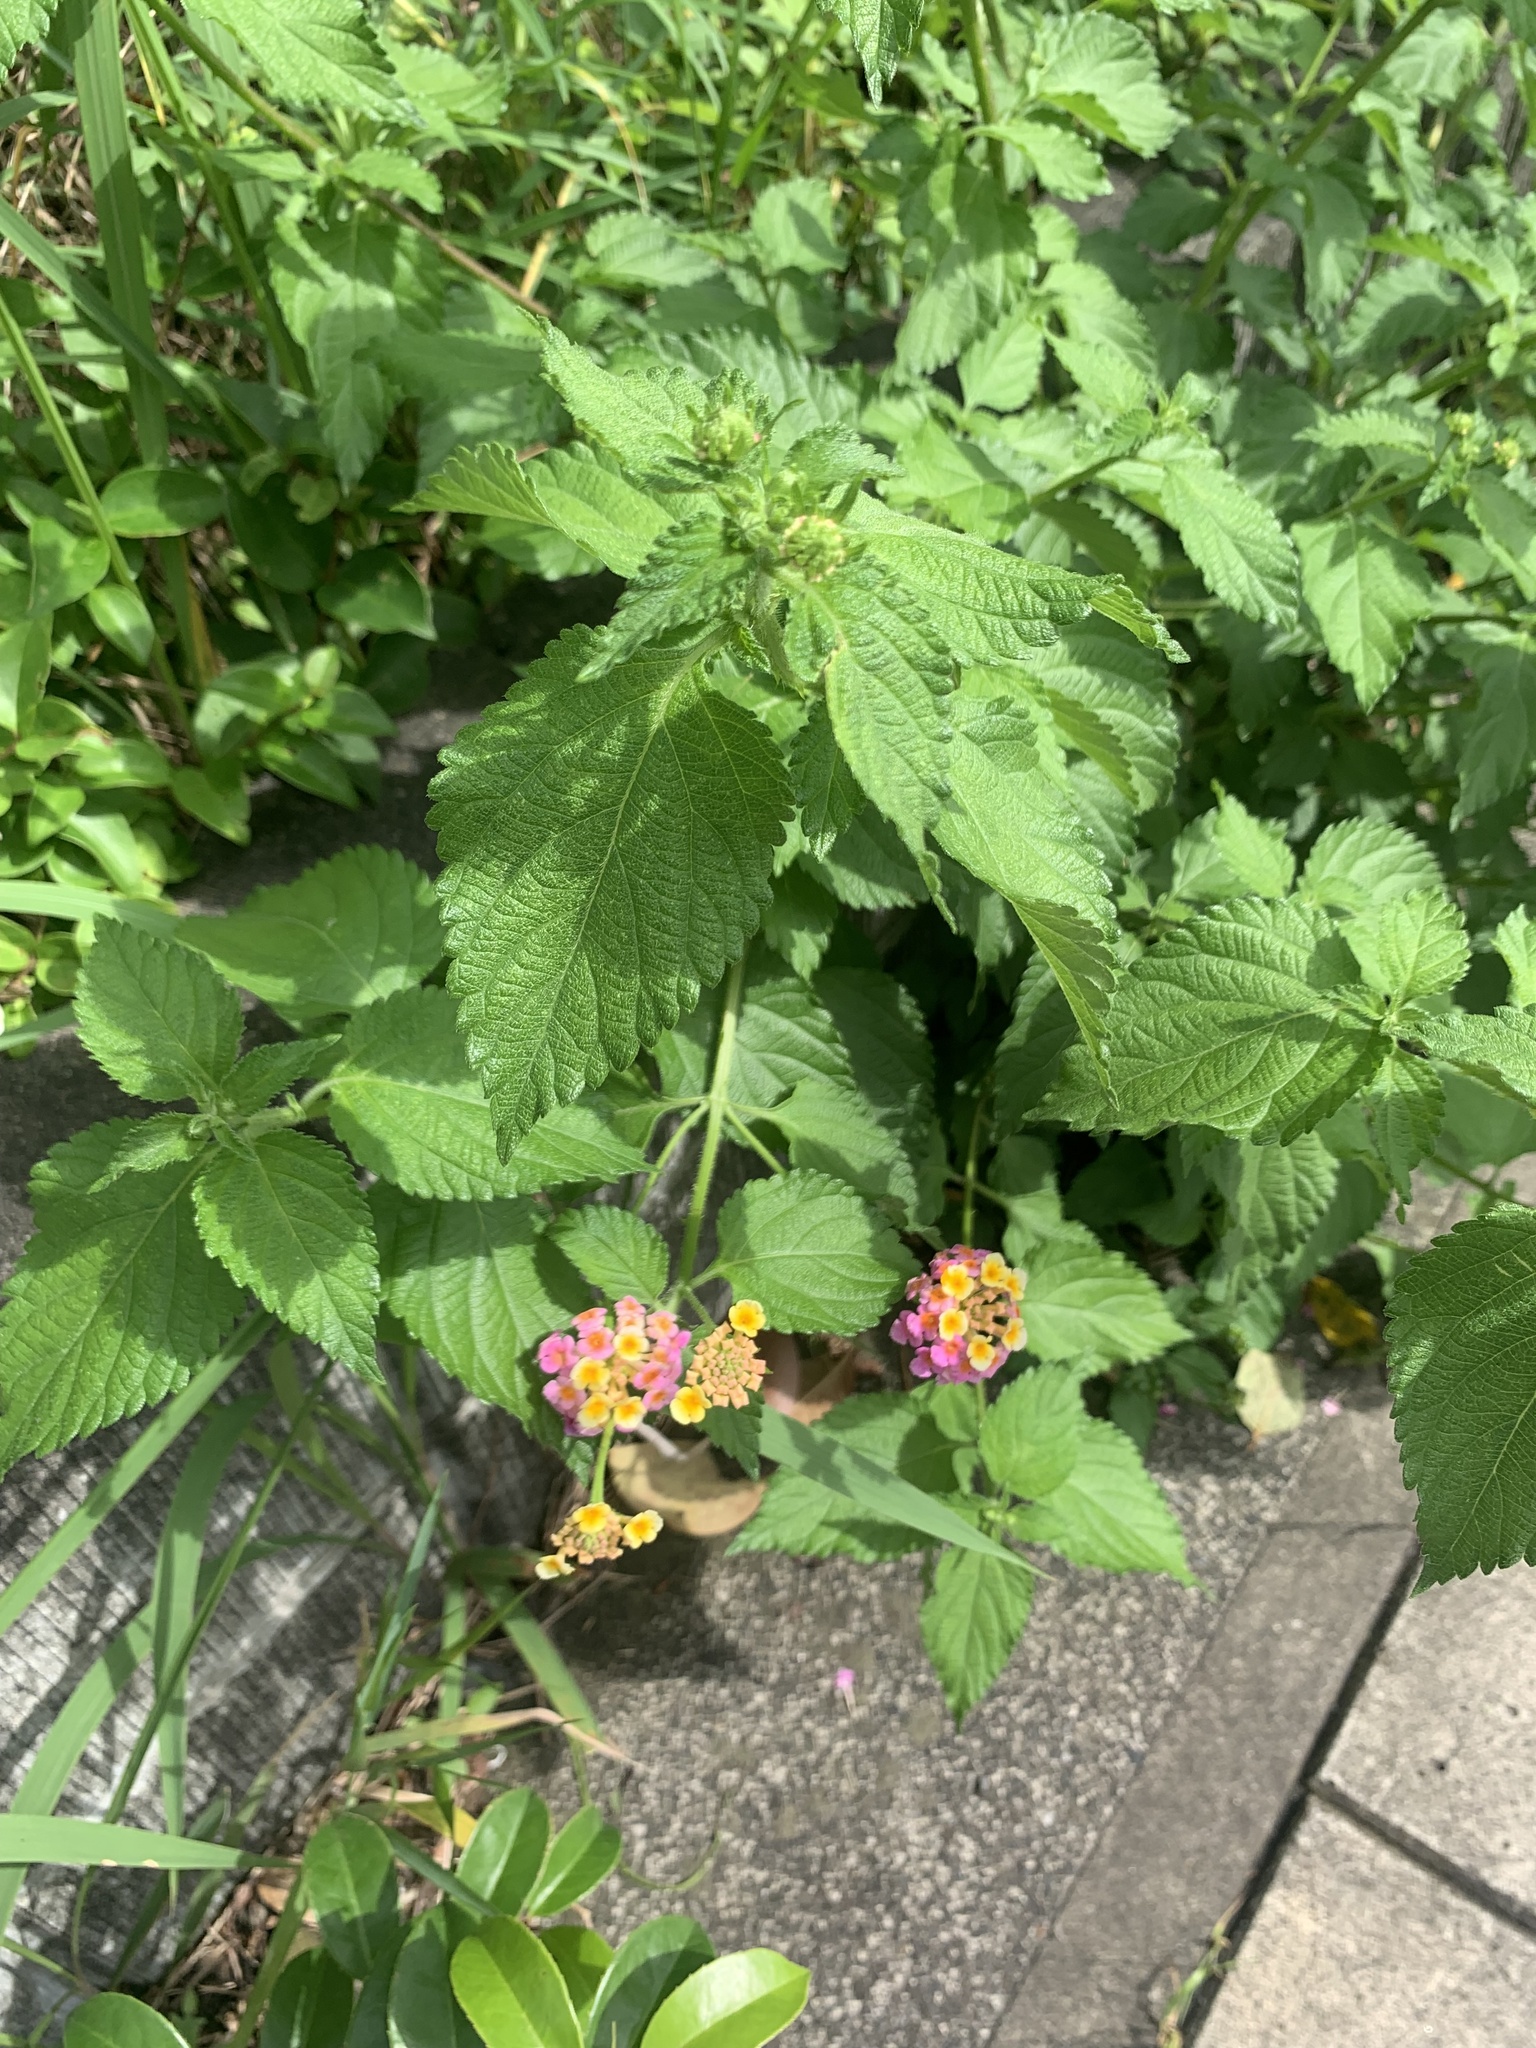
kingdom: Plantae
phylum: Tracheophyta
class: Magnoliopsida
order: Lamiales
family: Verbenaceae
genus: Lantana
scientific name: Lantana camara
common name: Lantana
